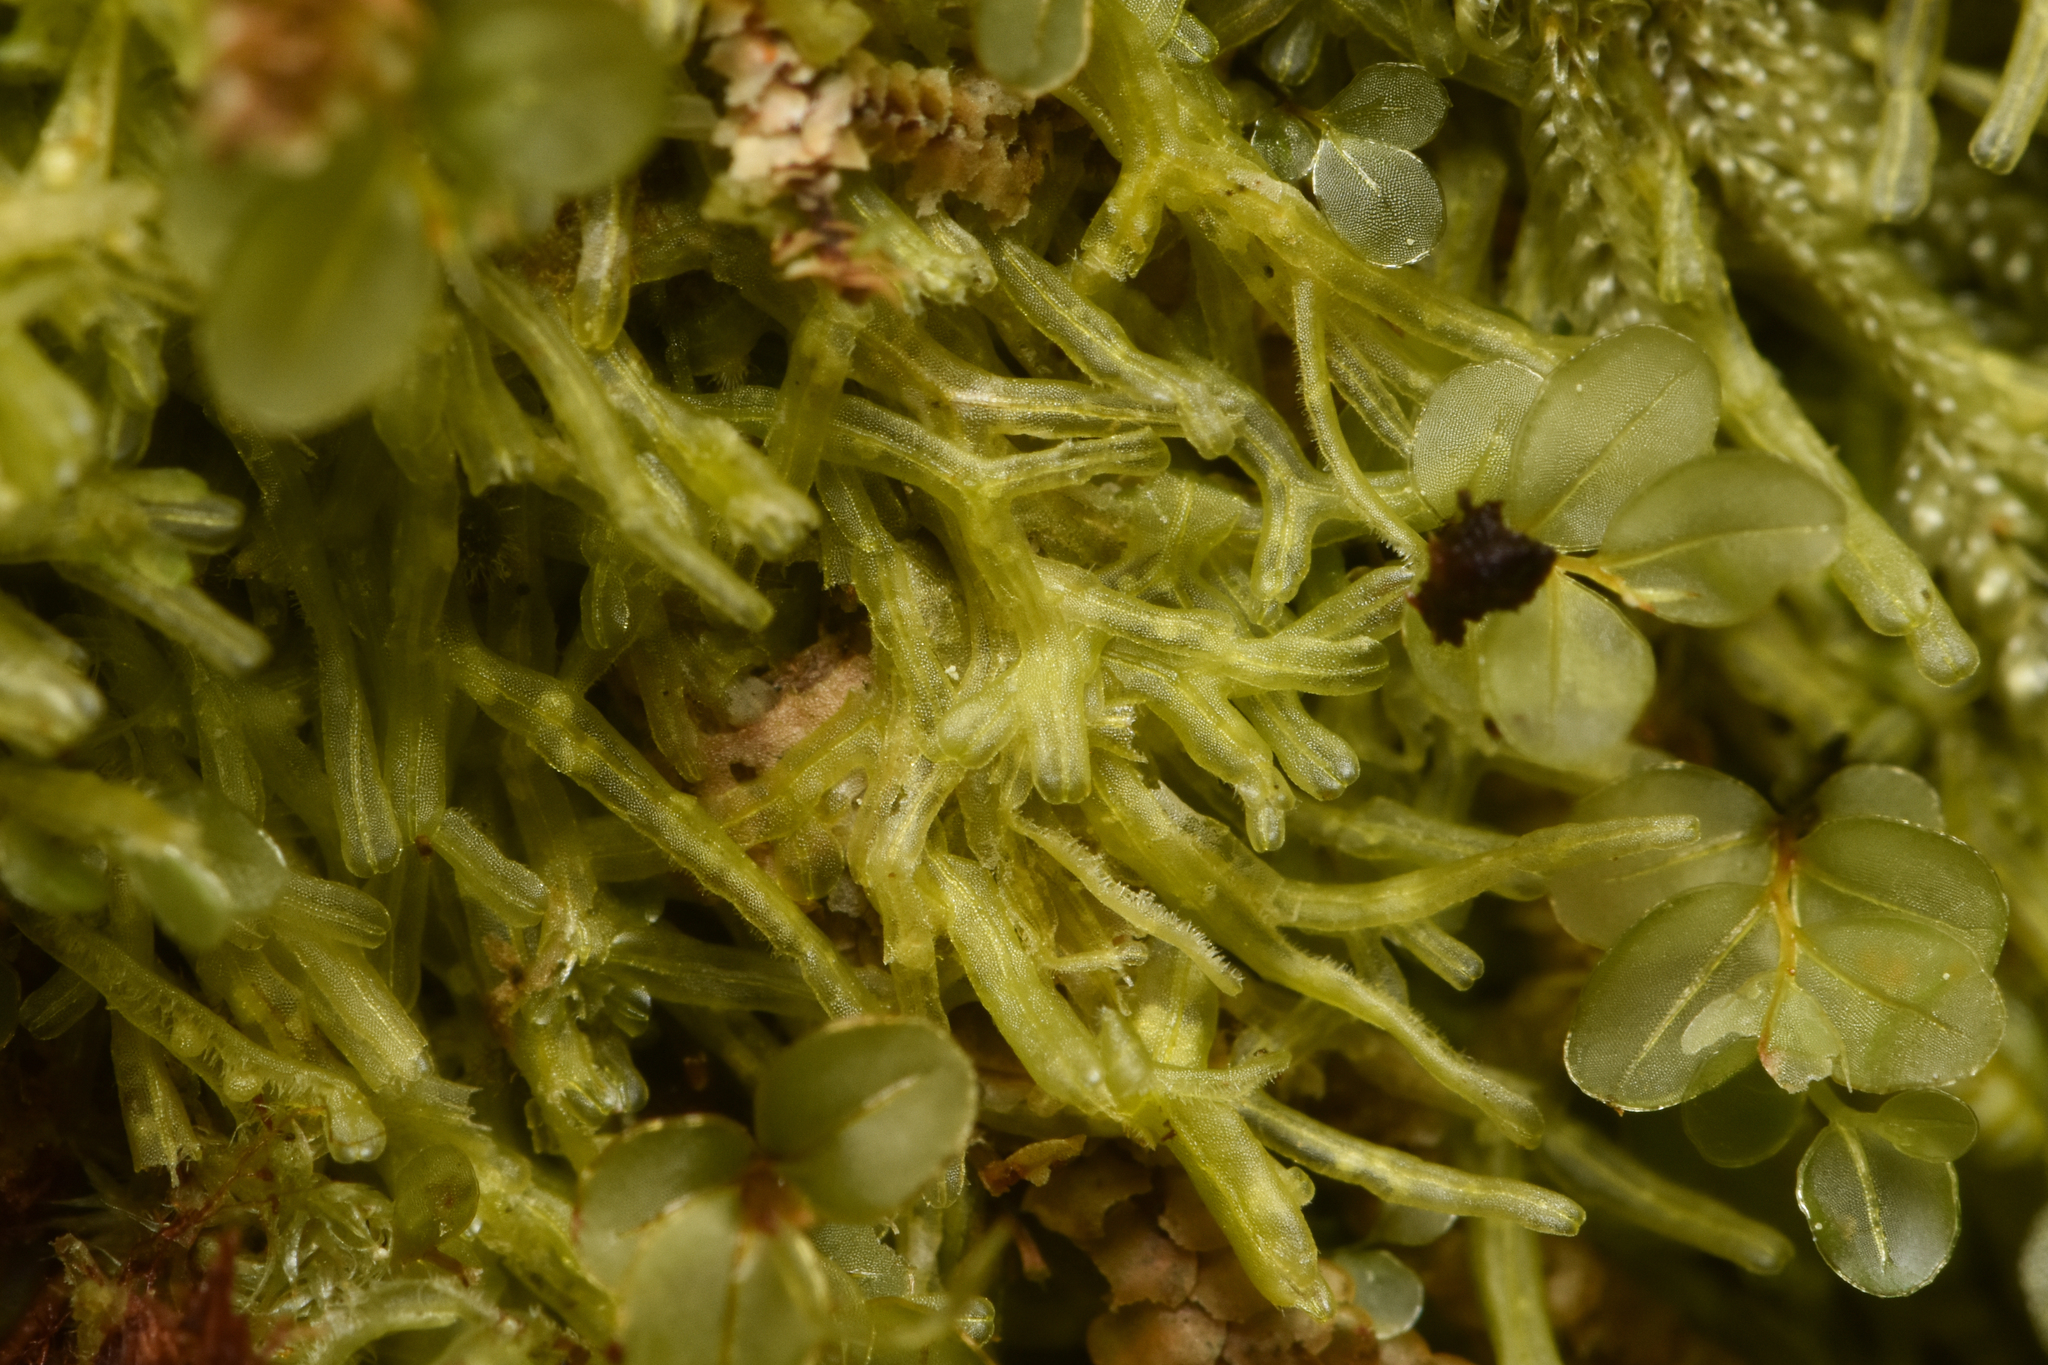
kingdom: Plantae
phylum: Marchantiophyta
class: Jungermanniopsida
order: Metzgeriales
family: Metzgeriaceae
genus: Metzgeria
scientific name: Metzgeria conjugata
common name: Rock veilwort
